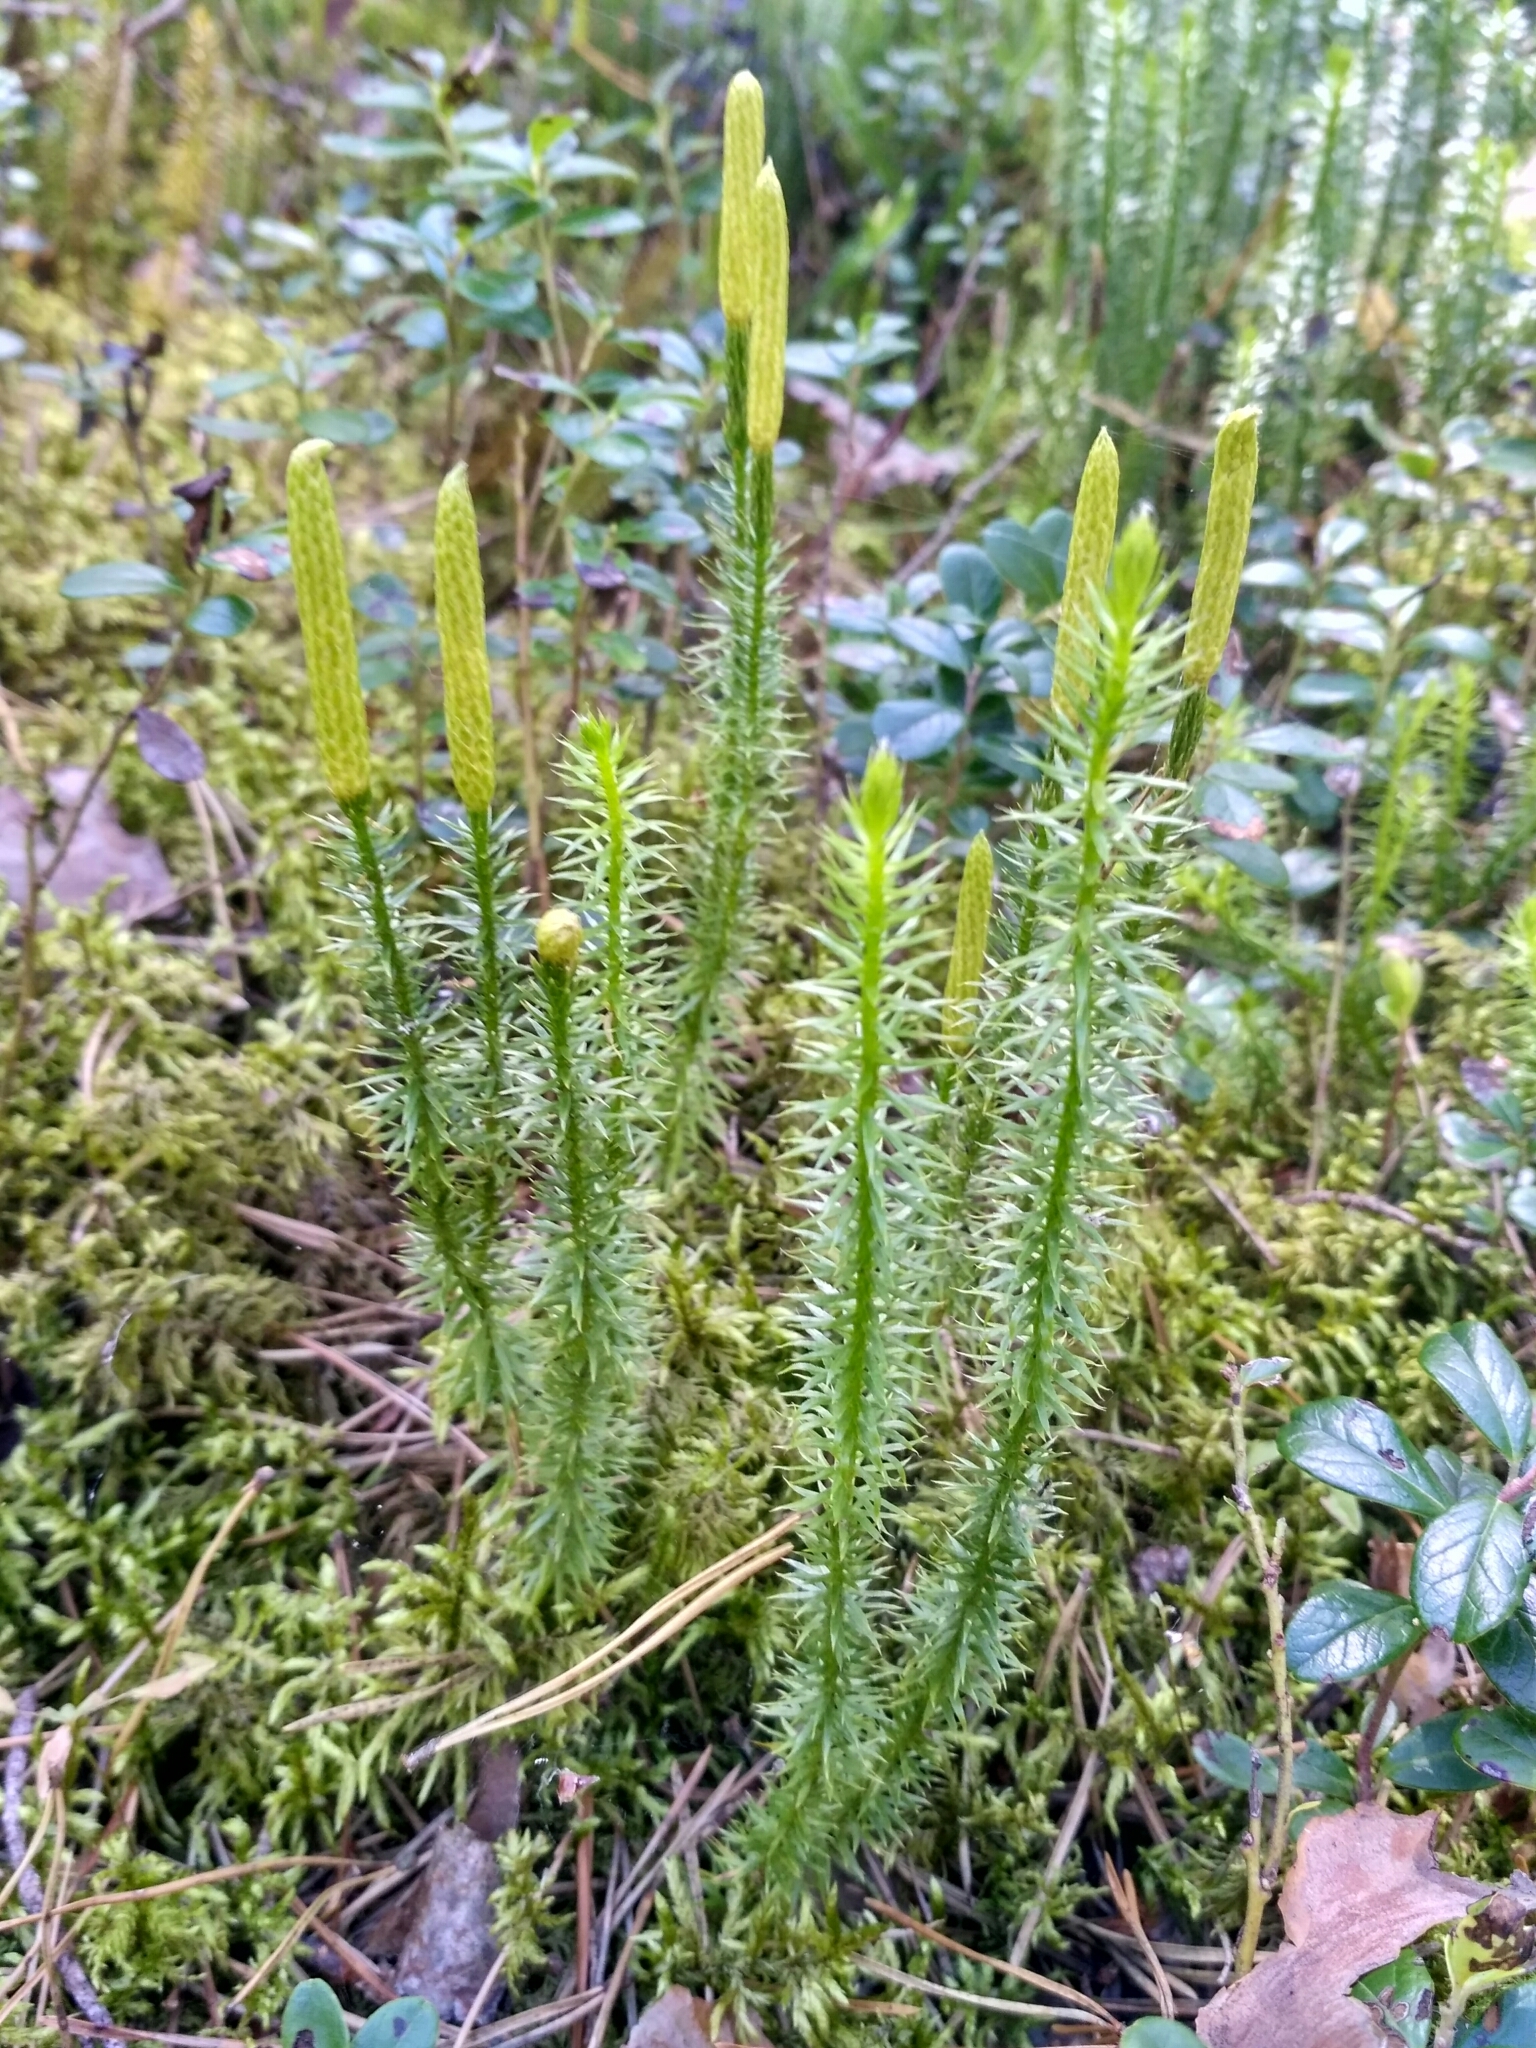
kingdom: Plantae
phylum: Tracheophyta
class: Lycopodiopsida
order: Lycopodiales
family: Lycopodiaceae
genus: Spinulum
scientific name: Spinulum annotinum
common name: Interrupted club-moss
